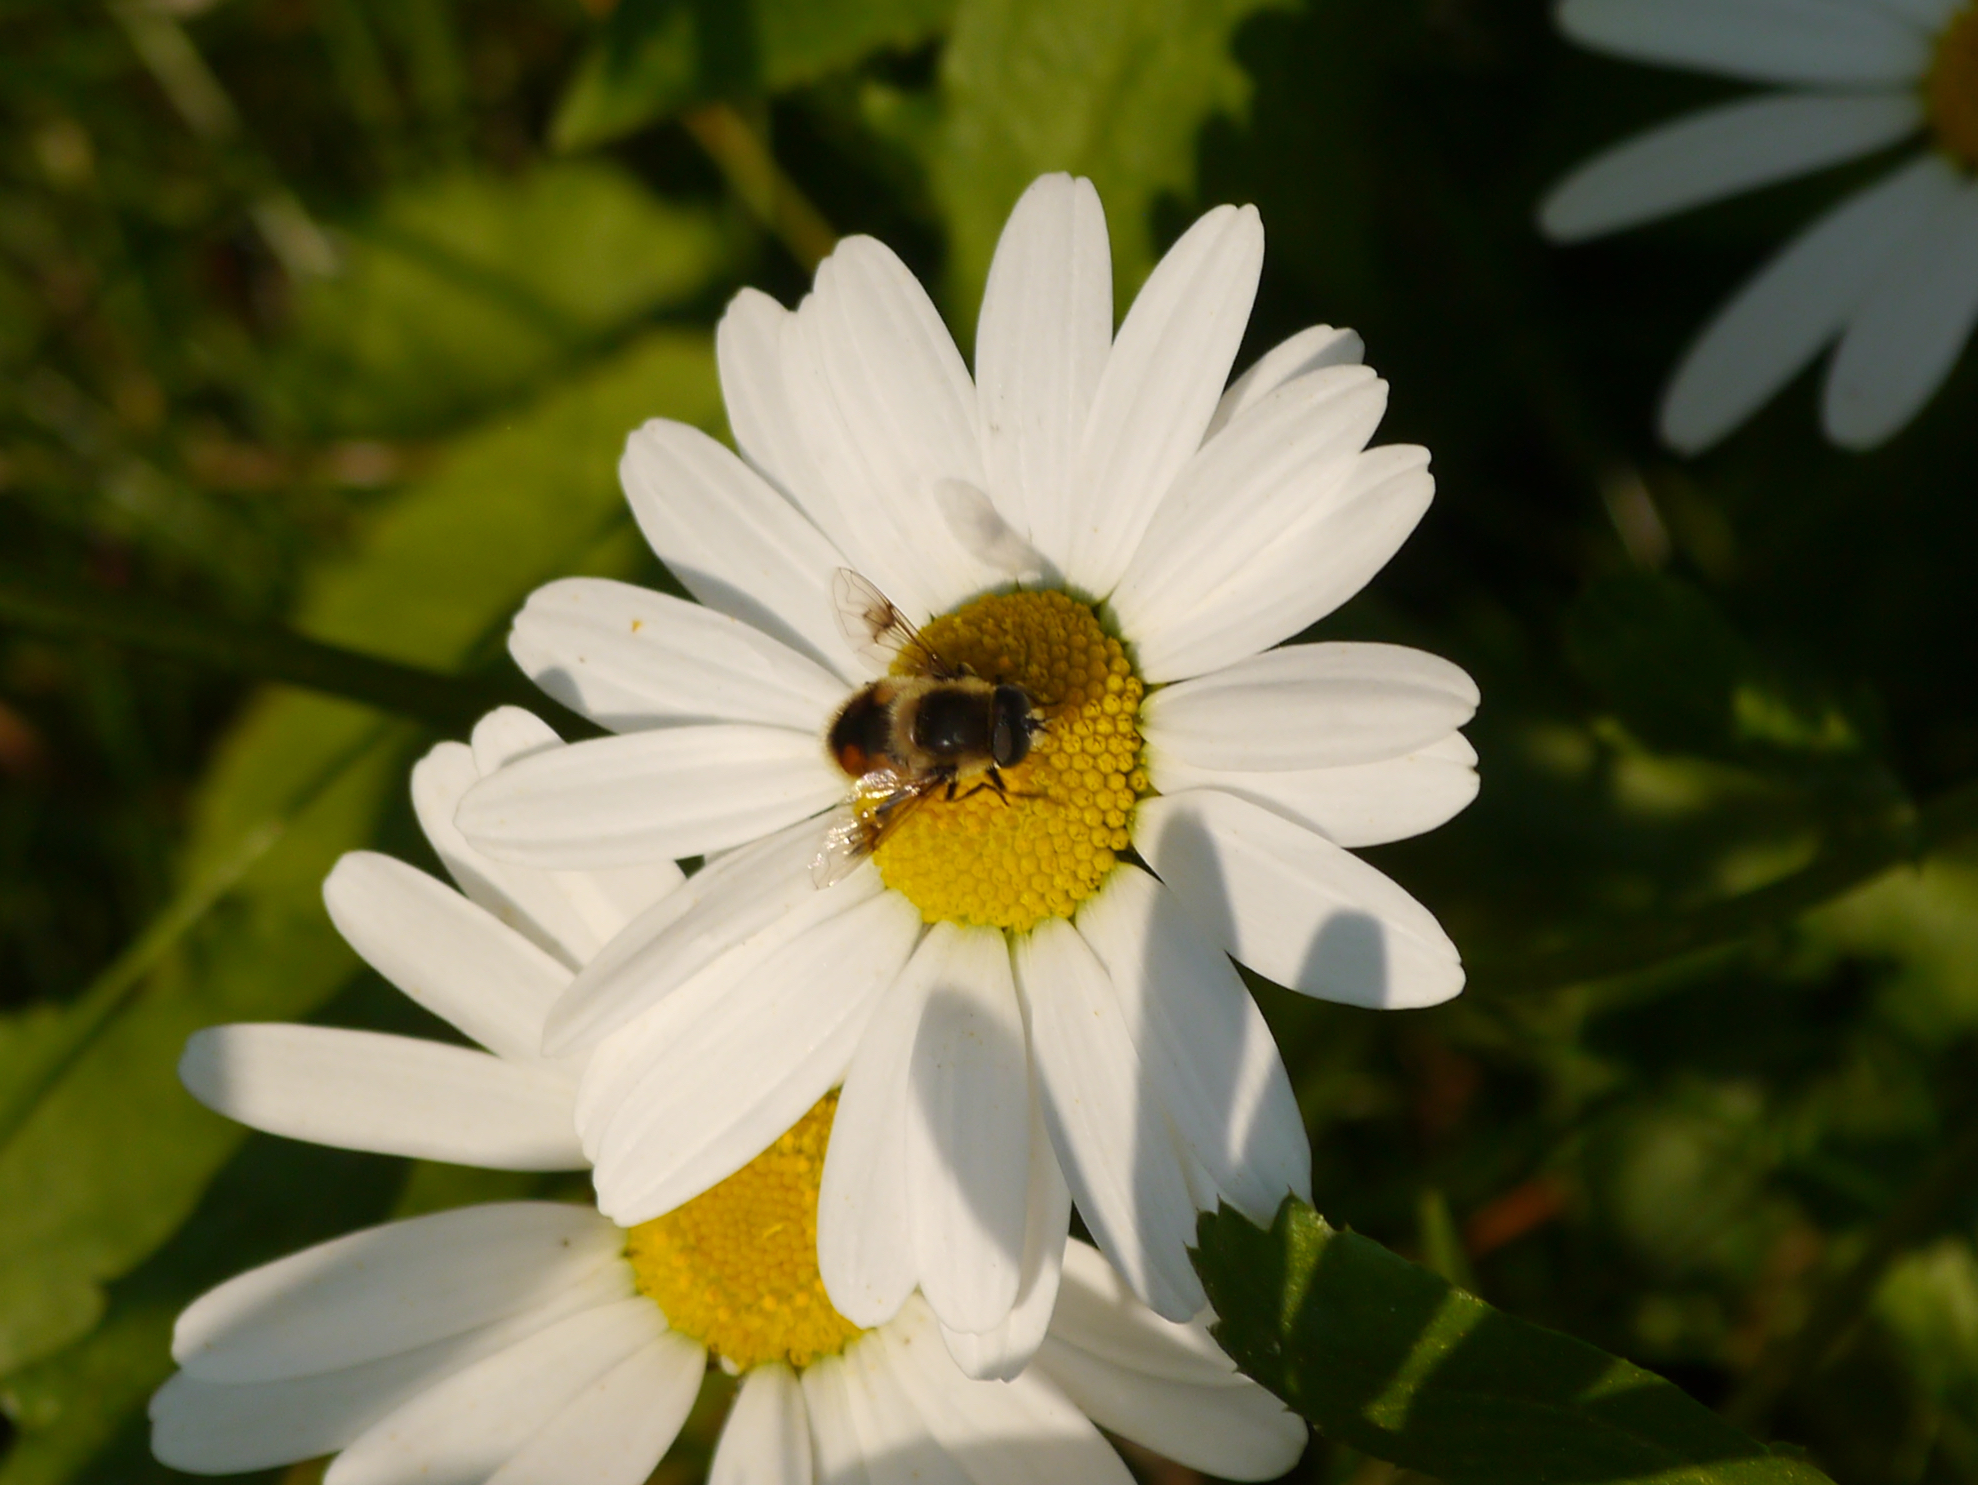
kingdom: Animalia
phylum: Arthropoda
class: Insecta
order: Diptera
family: Syrphidae
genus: Eristalis
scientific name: Eristalis anthophorina
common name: Orange-spotted drone fly
